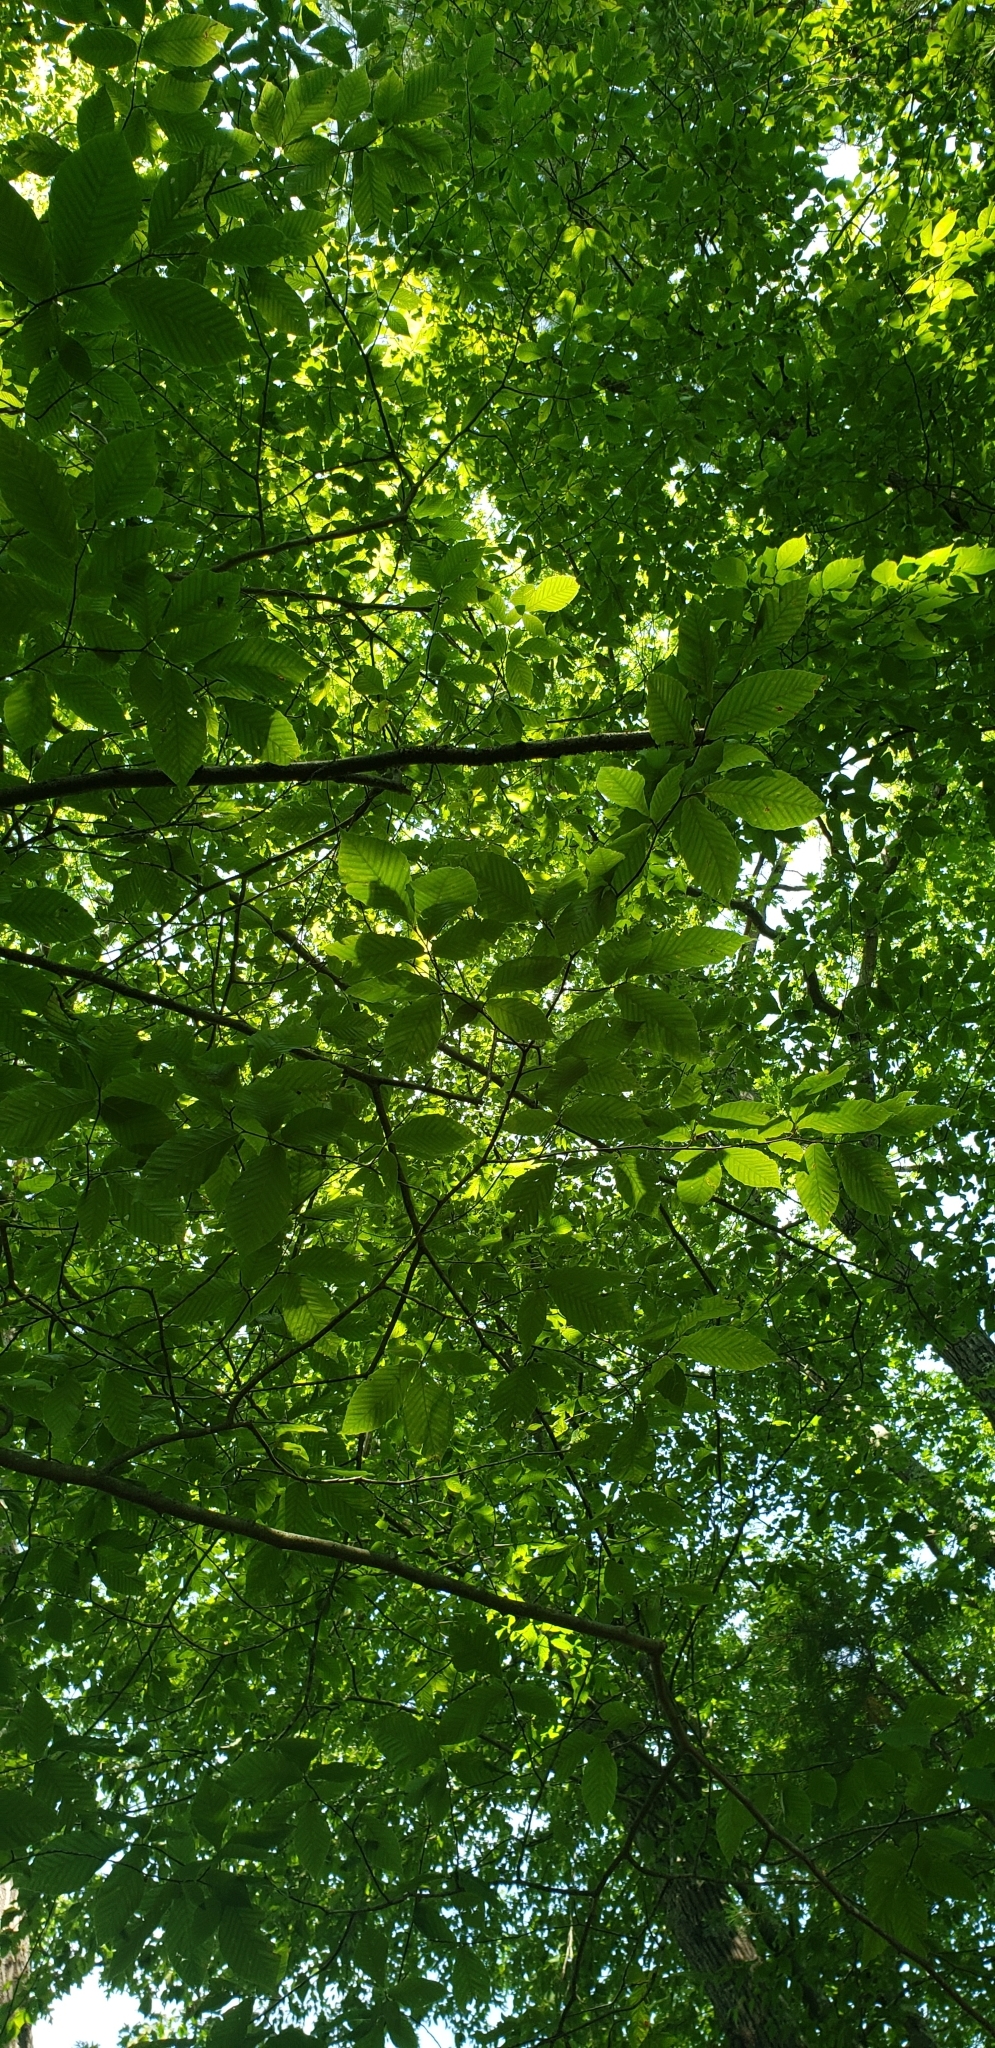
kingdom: Plantae
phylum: Tracheophyta
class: Magnoliopsida
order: Fagales
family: Fagaceae
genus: Fagus
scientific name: Fagus grandifolia
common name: American beech
